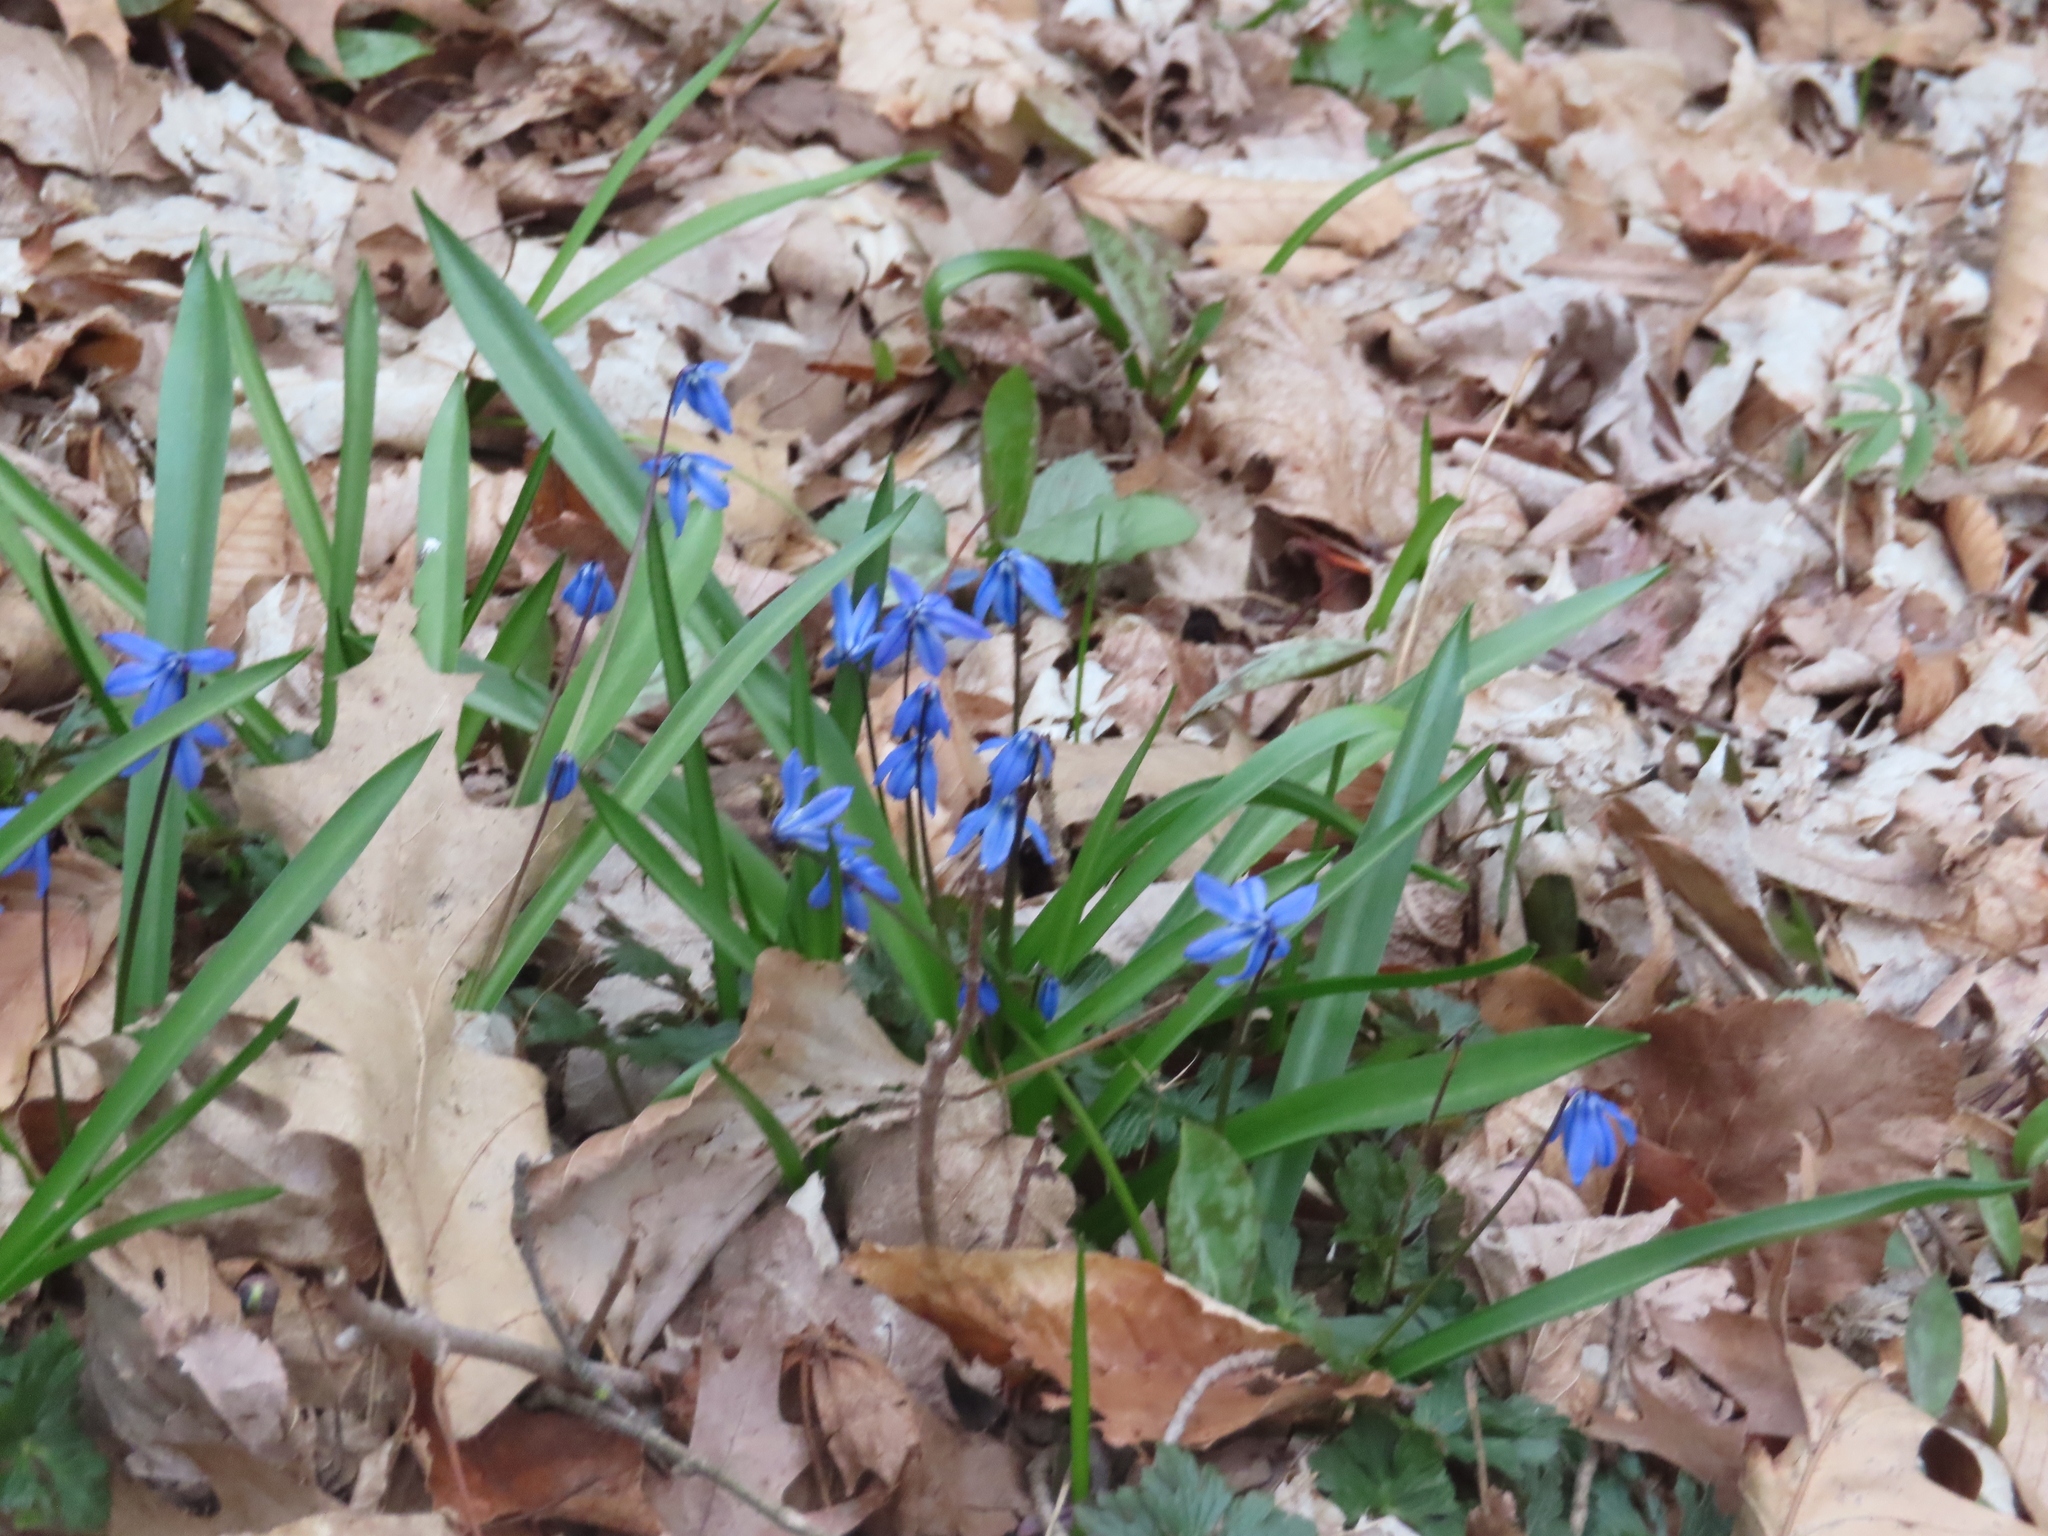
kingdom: Plantae
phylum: Tracheophyta
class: Liliopsida
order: Asparagales
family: Asparagaceae
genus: Scilla
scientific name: Scilla siberica
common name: Siberian squill
